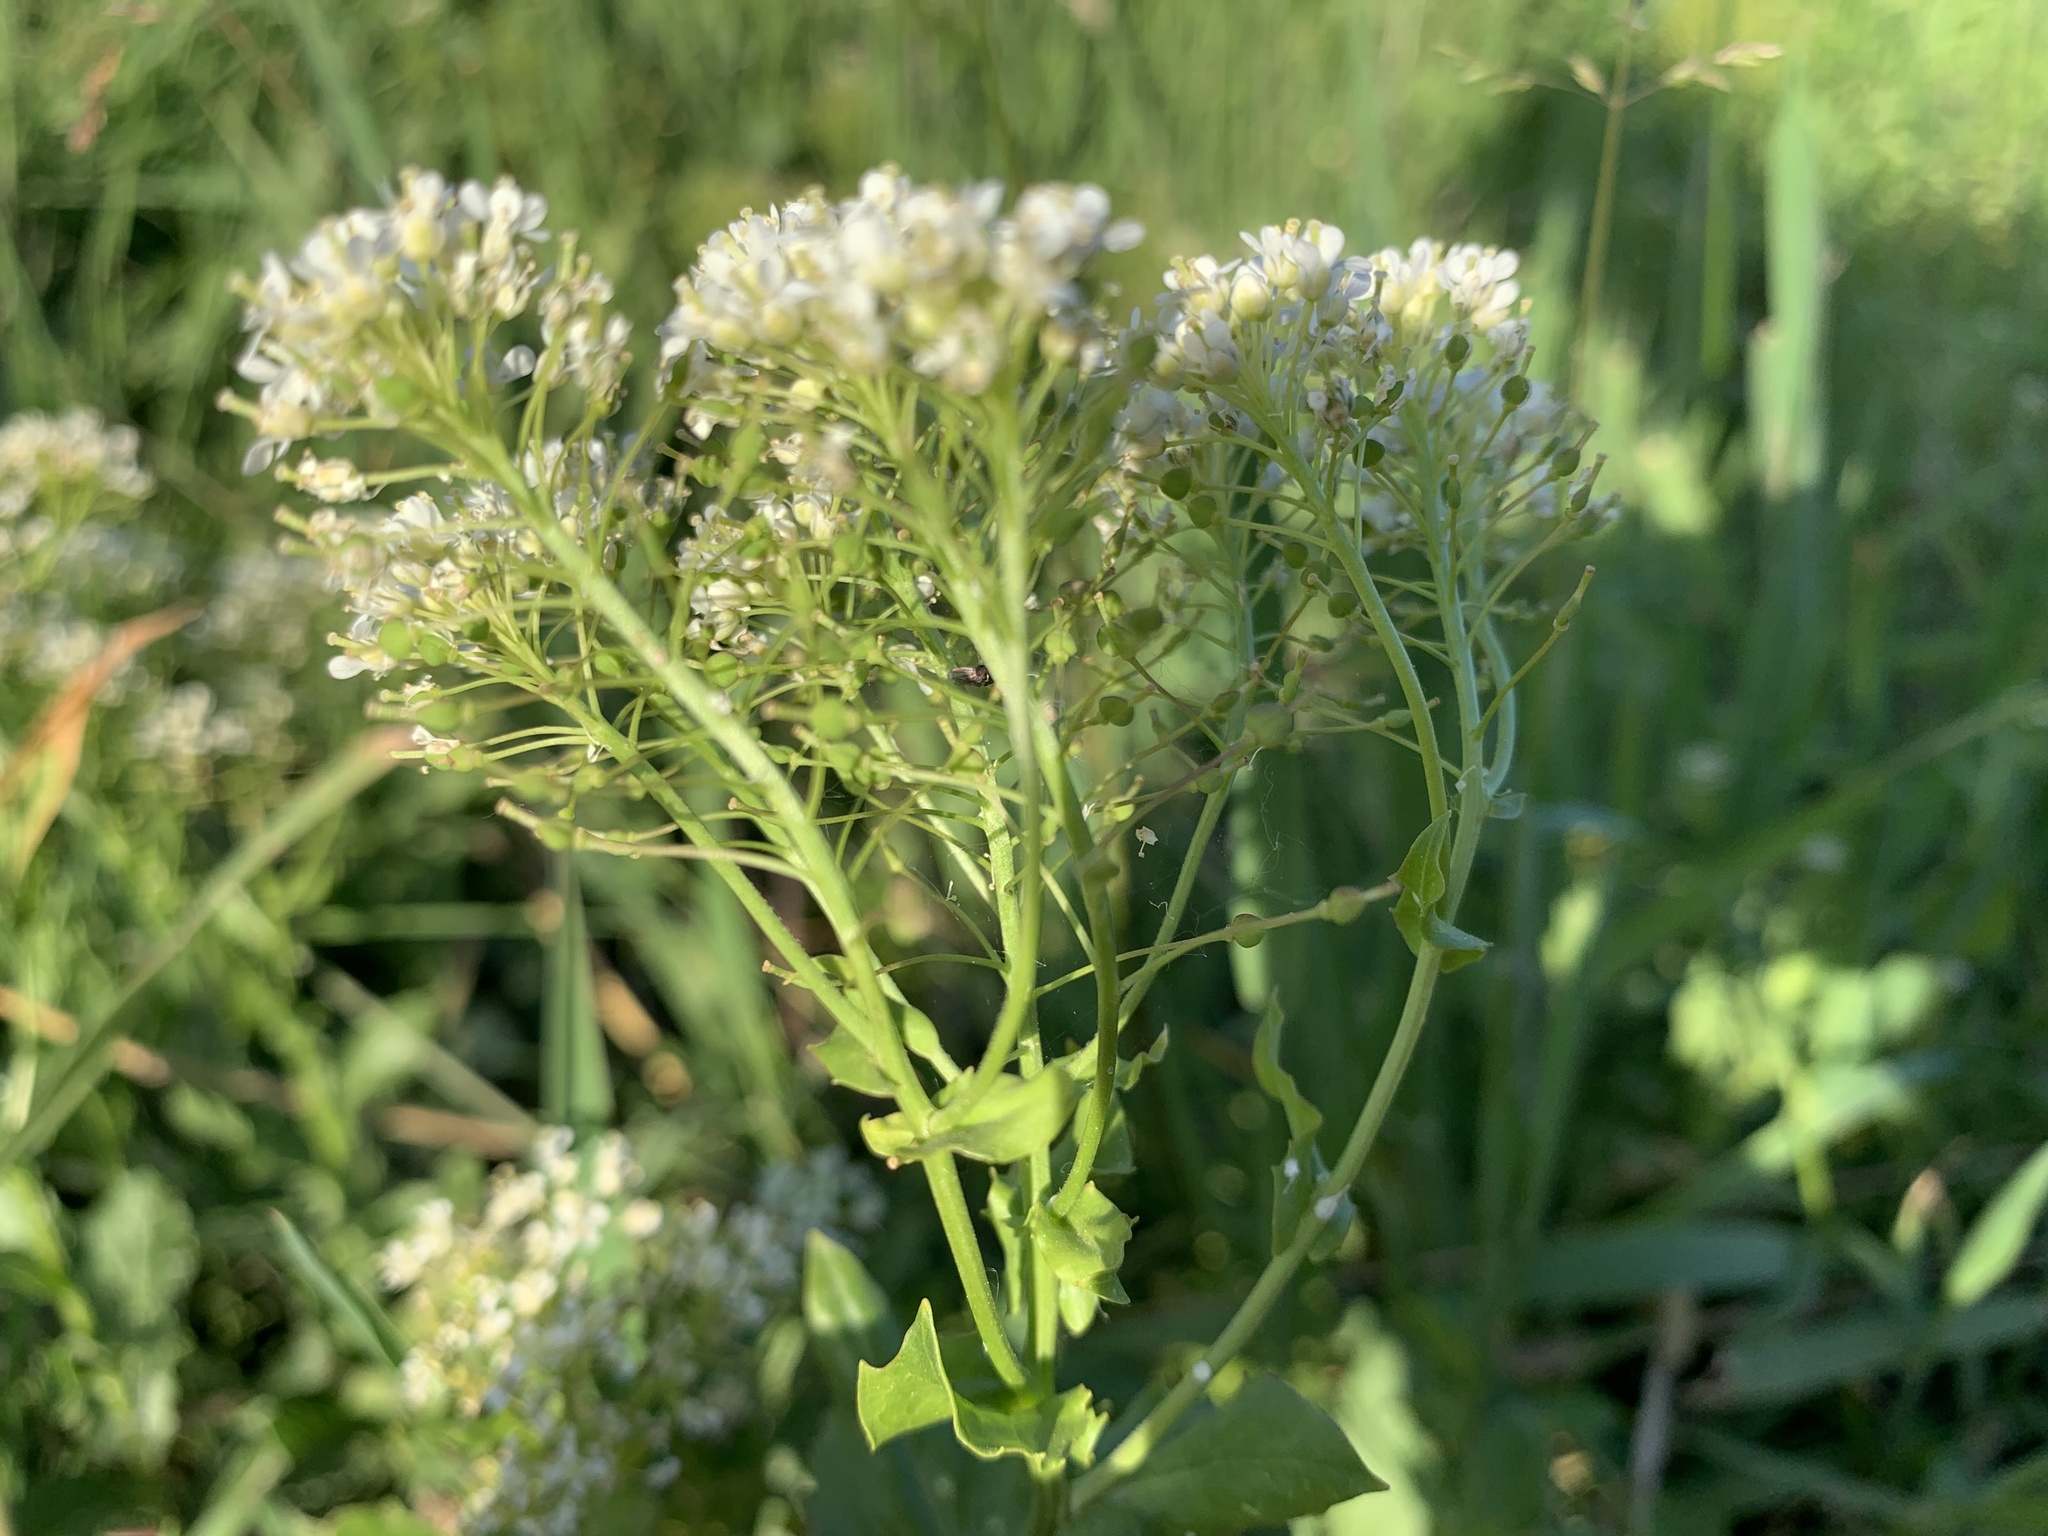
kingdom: Plantae
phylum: Tracheophyta
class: Magnoliopsida
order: Brassicales
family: Brassicaceae
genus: Lepidium
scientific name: Lepidium draba
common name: Hoary cress
